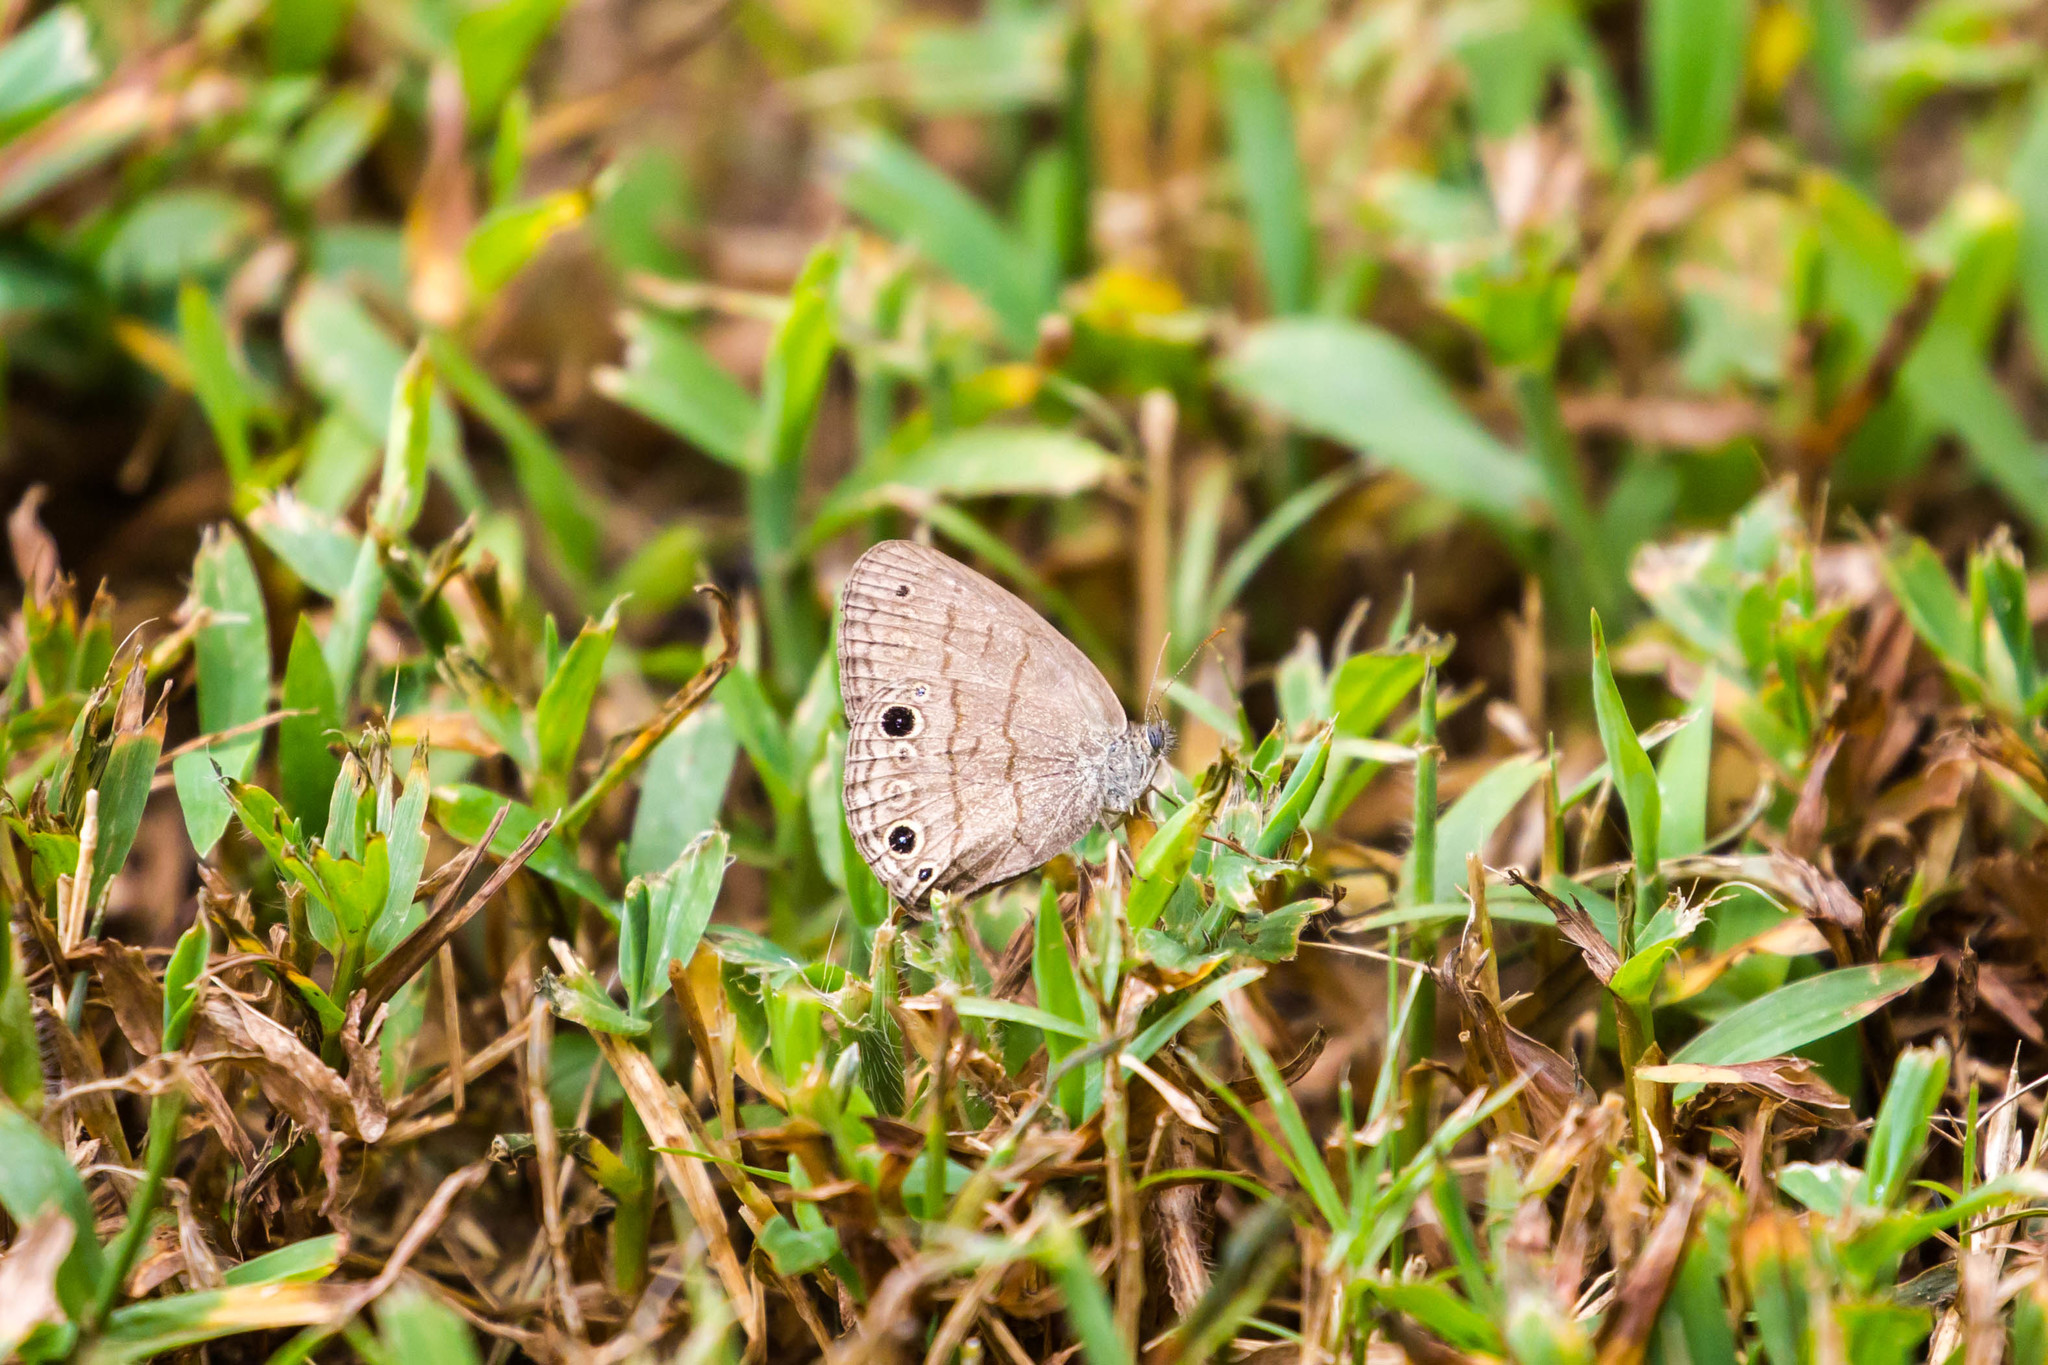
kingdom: Animalia
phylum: Arthropoda
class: Insecta
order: Lepidoptera
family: Nymphalidae
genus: Hermeuptychia
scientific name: Hermeuptychia hermes
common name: Hermes satyr
